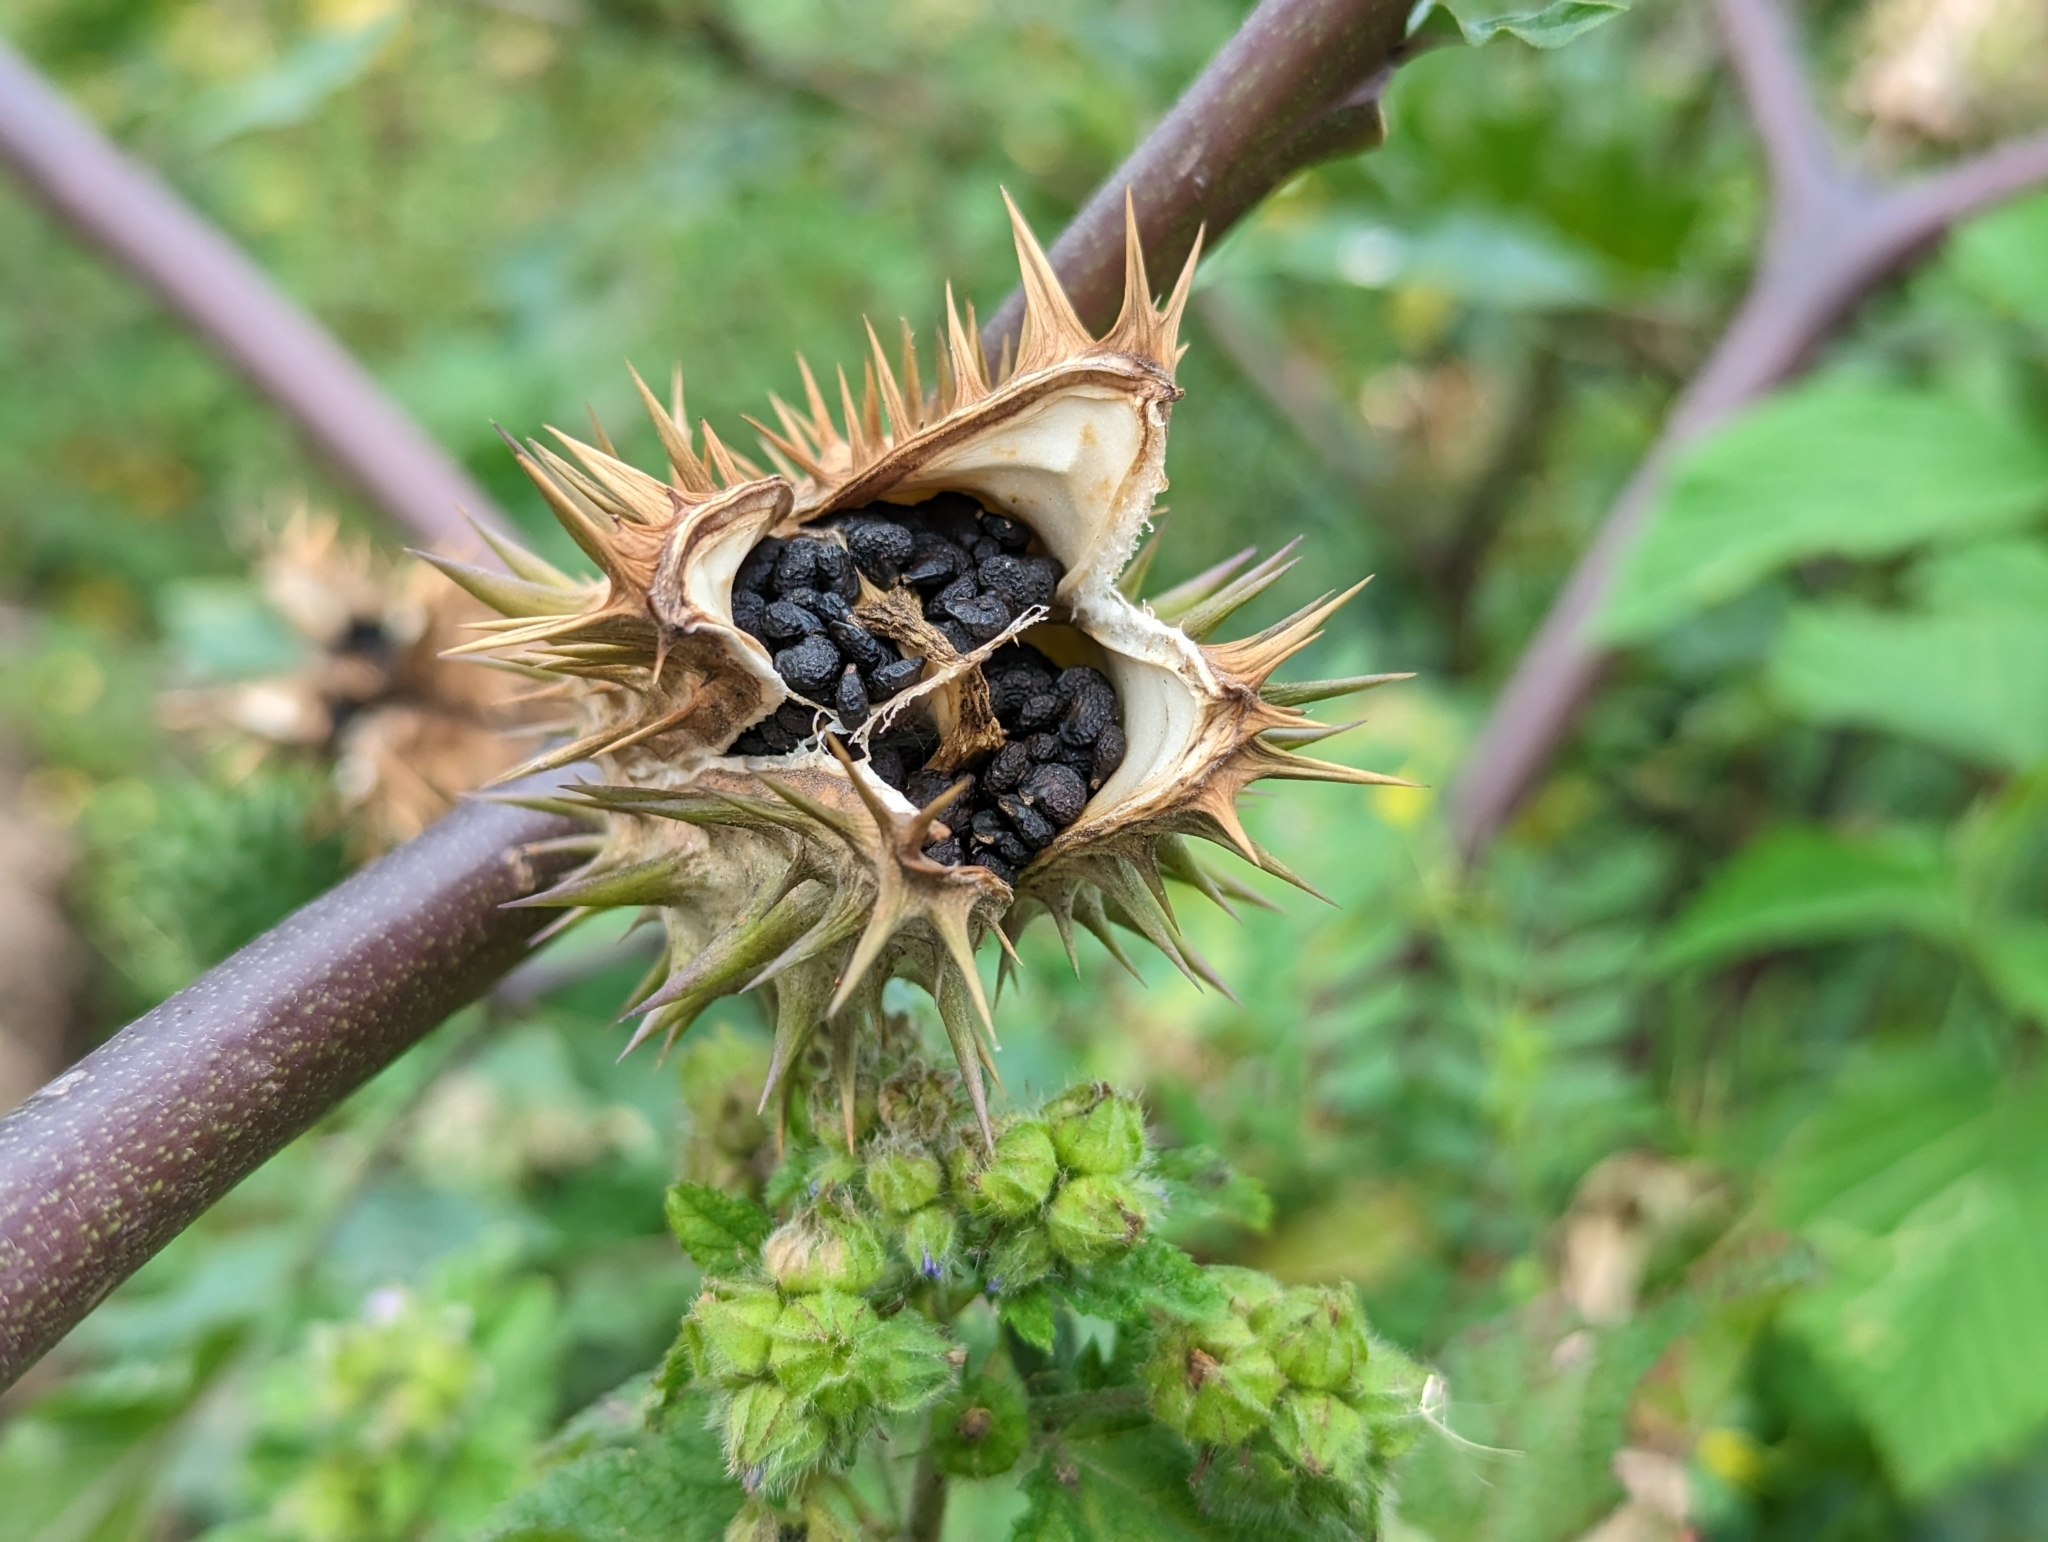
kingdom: Plantae
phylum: Tracheophyta
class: Magnoliopsida
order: Solanales
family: Solanaceae
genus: Datura
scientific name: Datura stramonium
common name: Thorn-apple
